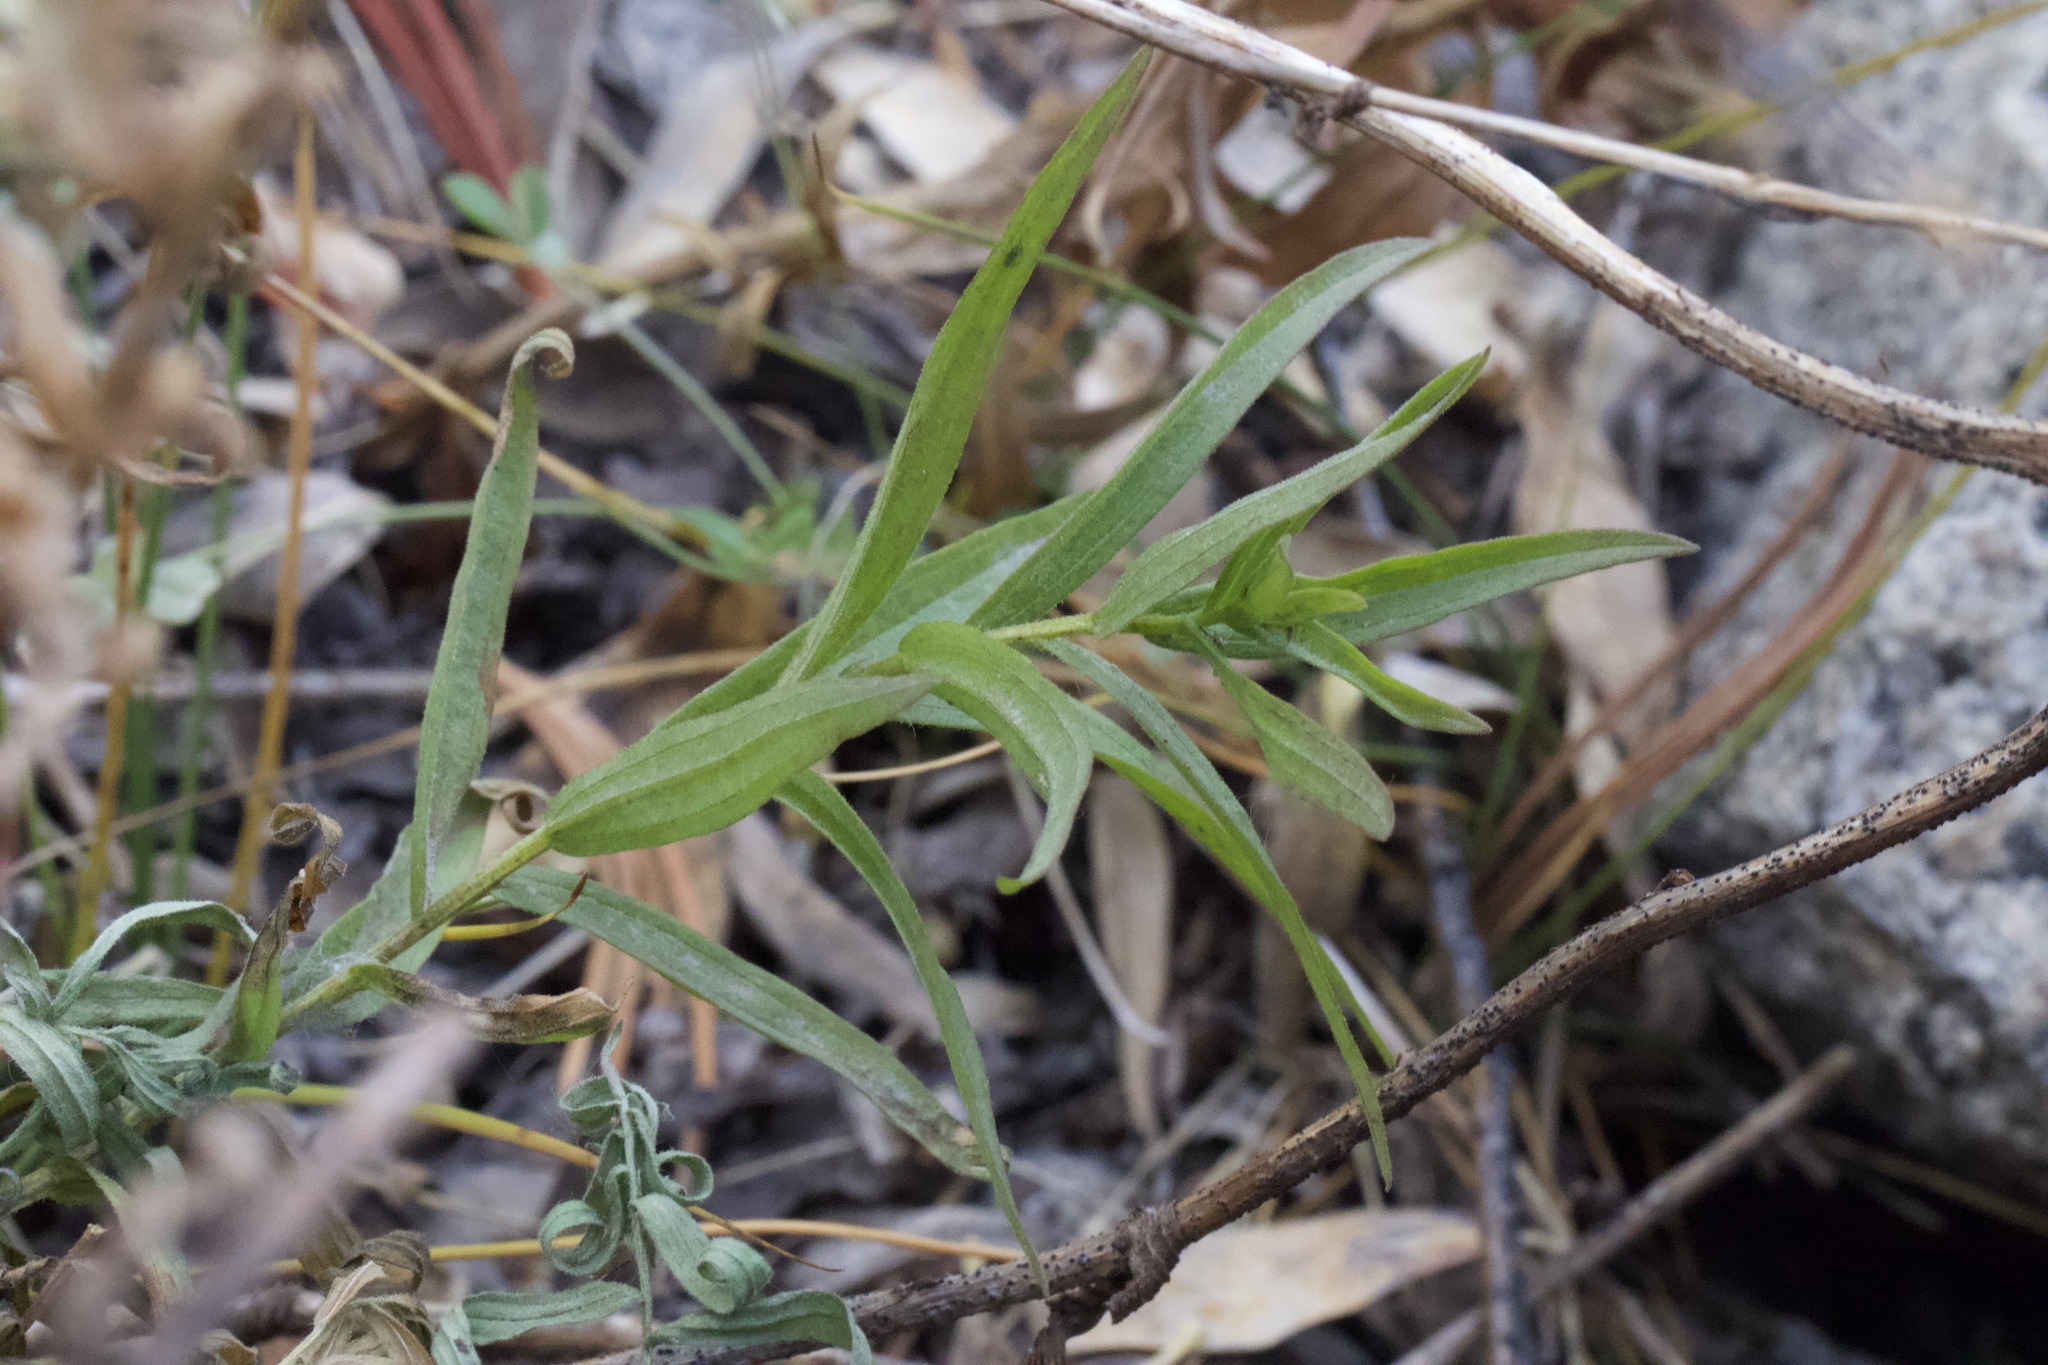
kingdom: Plantae
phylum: Tracheophyta
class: Magnoliopsida
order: Lamiales
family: Orobanchaceae
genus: Castilleja
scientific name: Castilleja miniata
